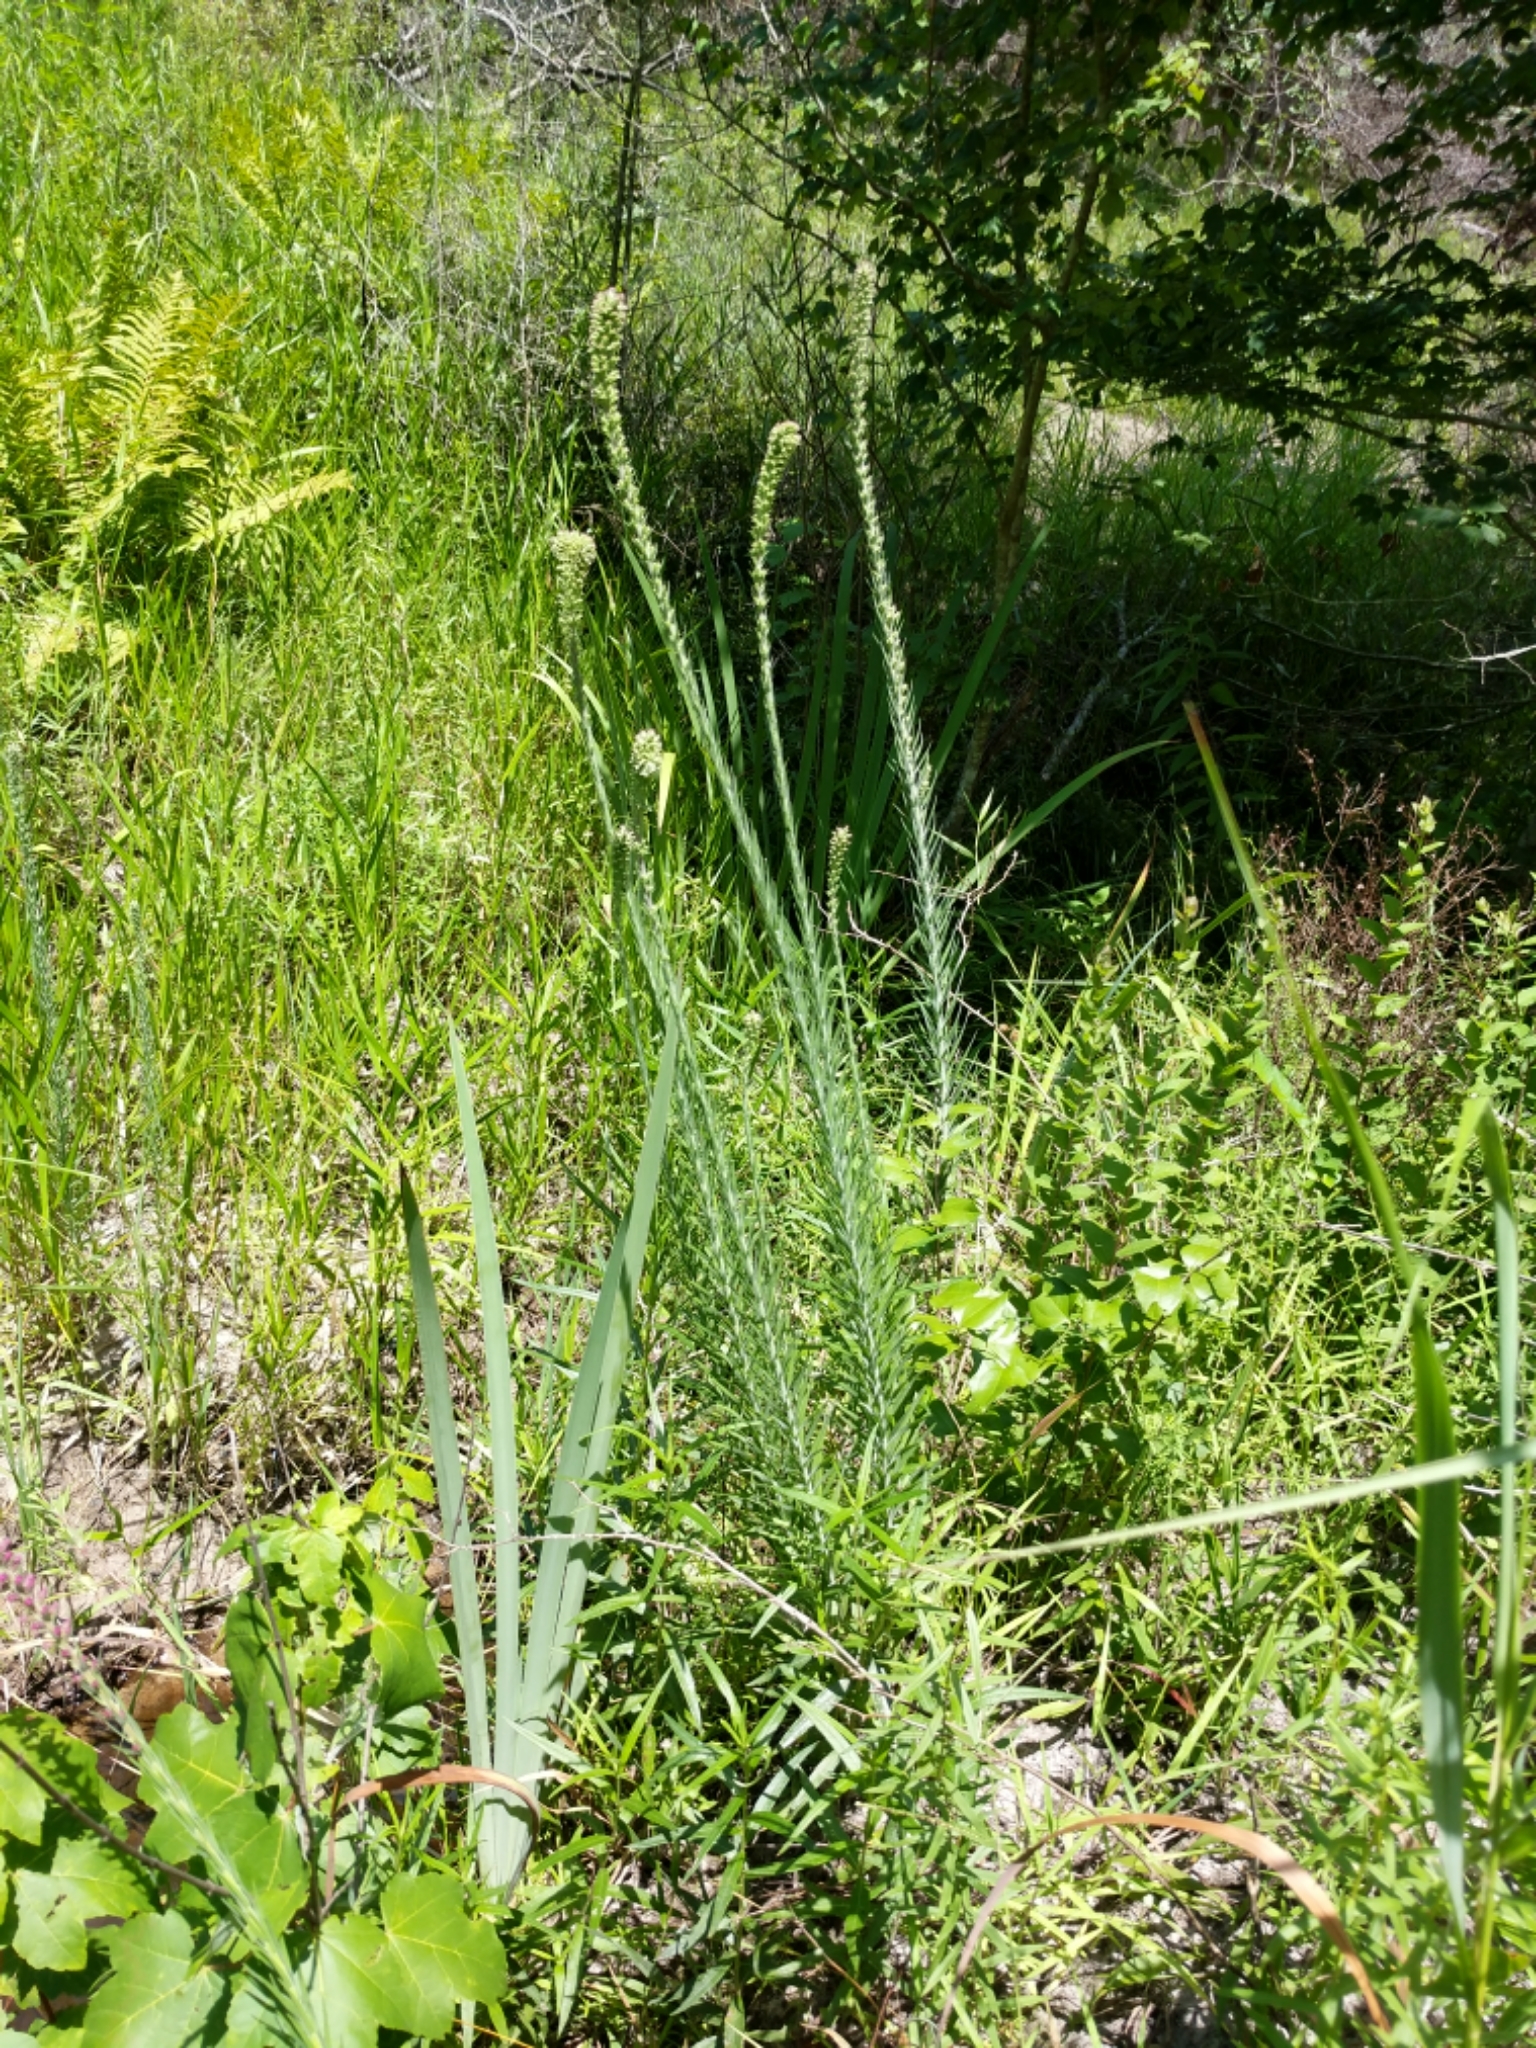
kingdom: Plantae
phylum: Tracheophyta
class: Magnoliopsida
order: Asterales
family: Asteraceae
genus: Liatris
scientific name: Liatris pycnostachya
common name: Cattail gayfeather
